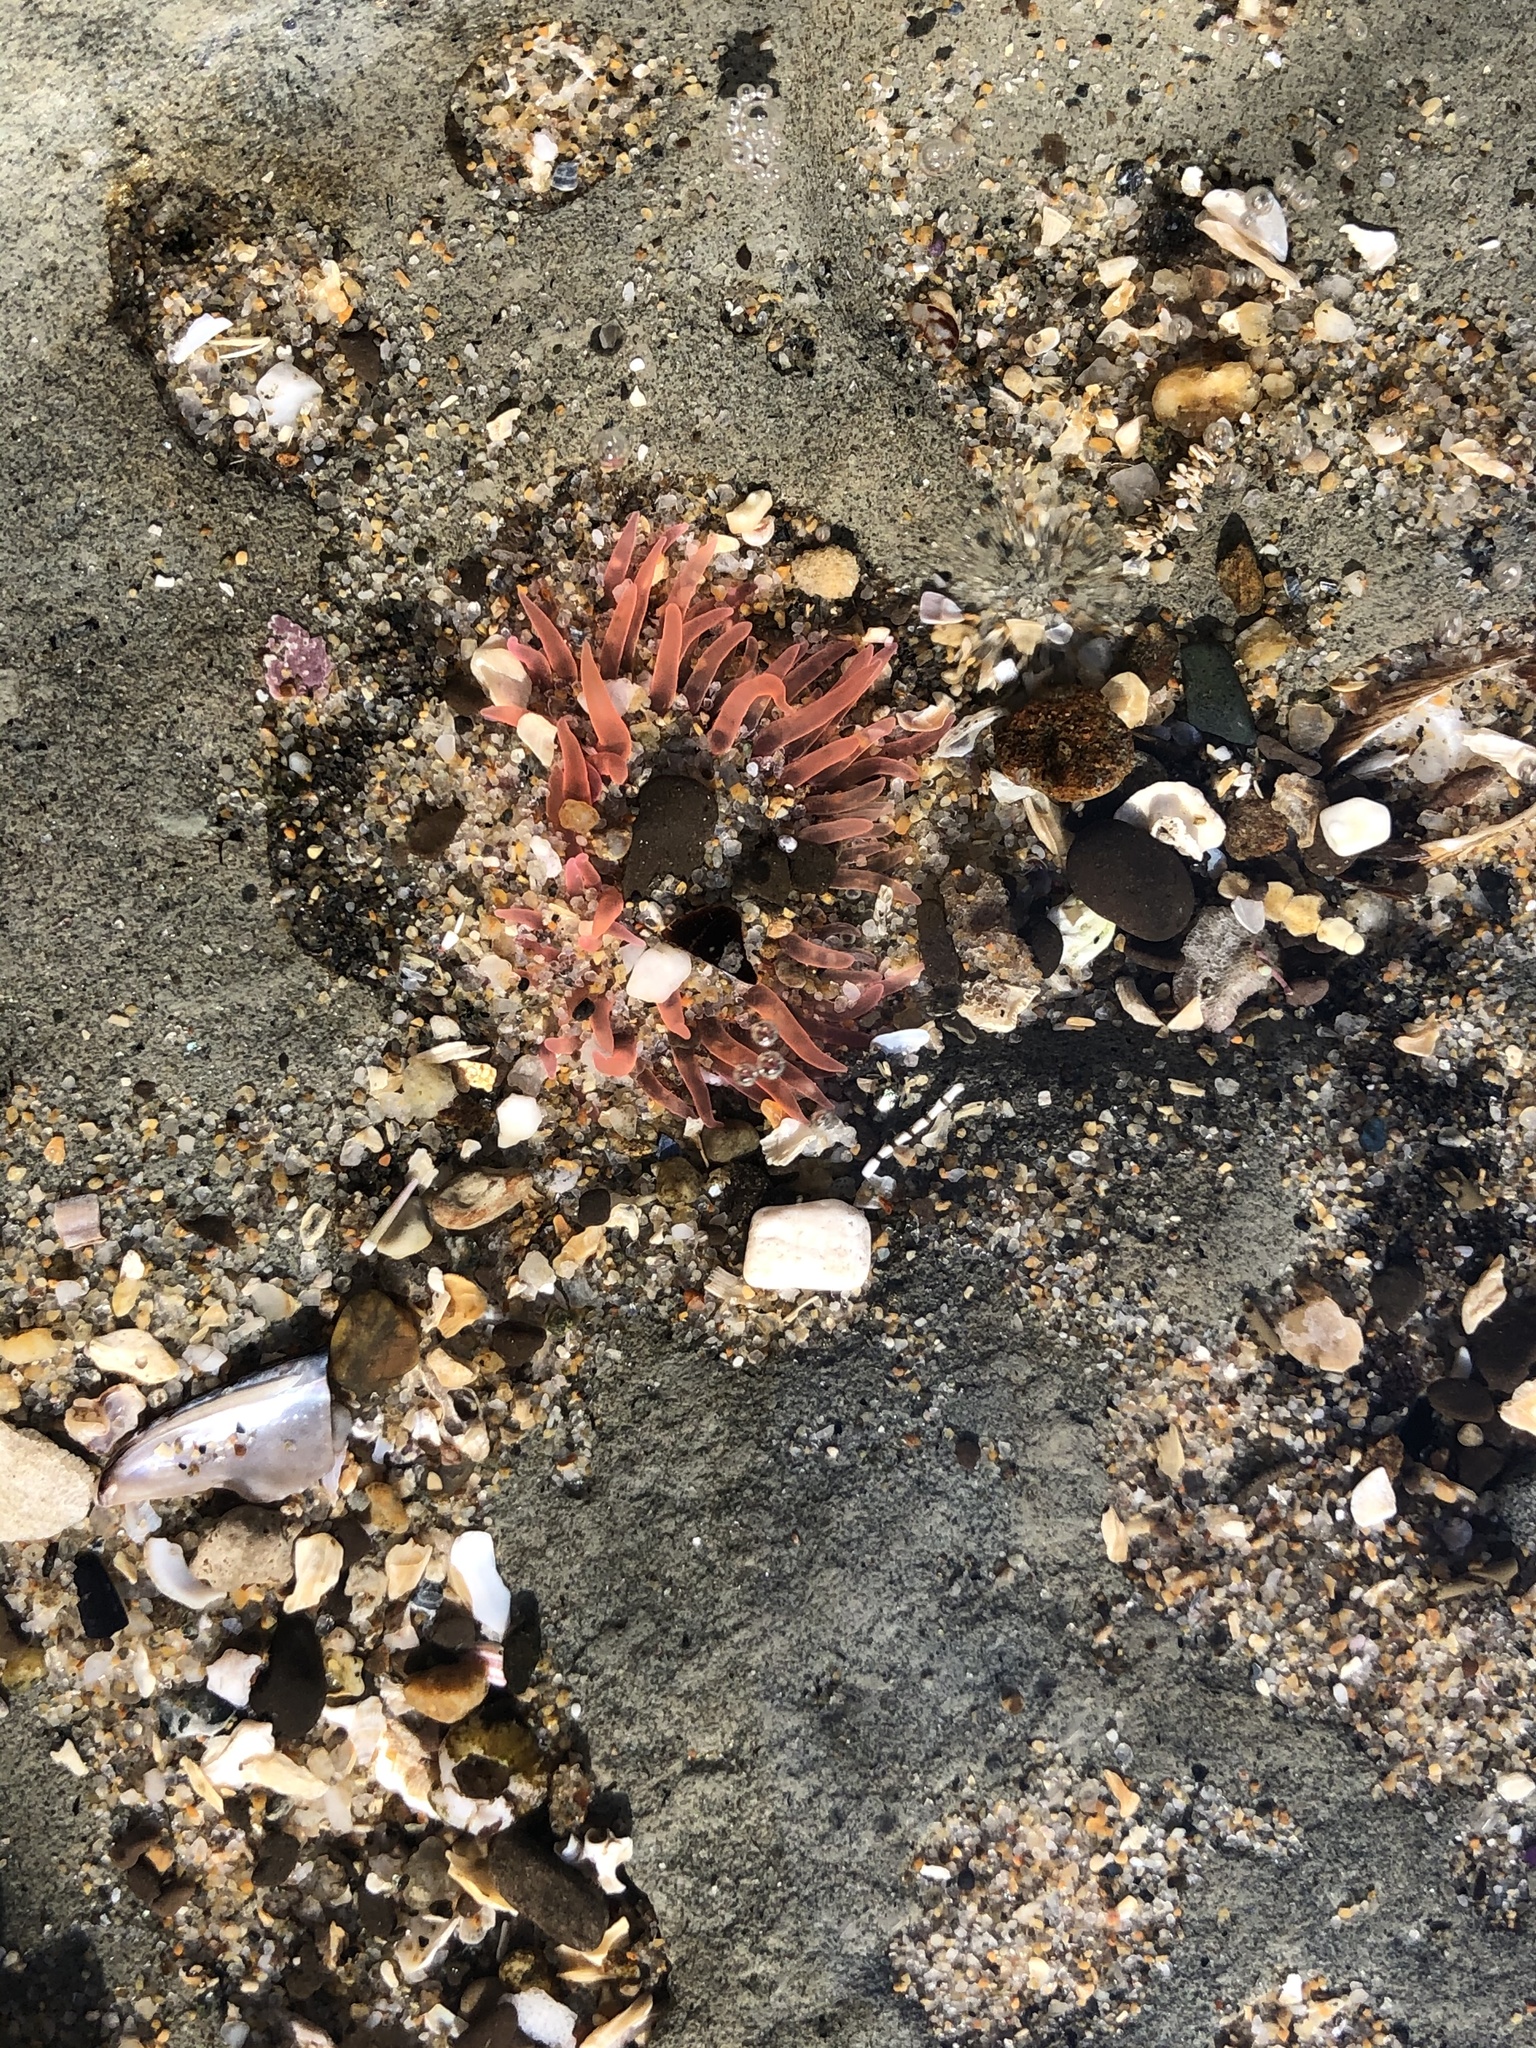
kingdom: Animalia
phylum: Cnidaria
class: Anthozoa
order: Actiniaria
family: Actiniidae
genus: Anthopleura
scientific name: Anthopleura artemisia
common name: Buried sea anemone
